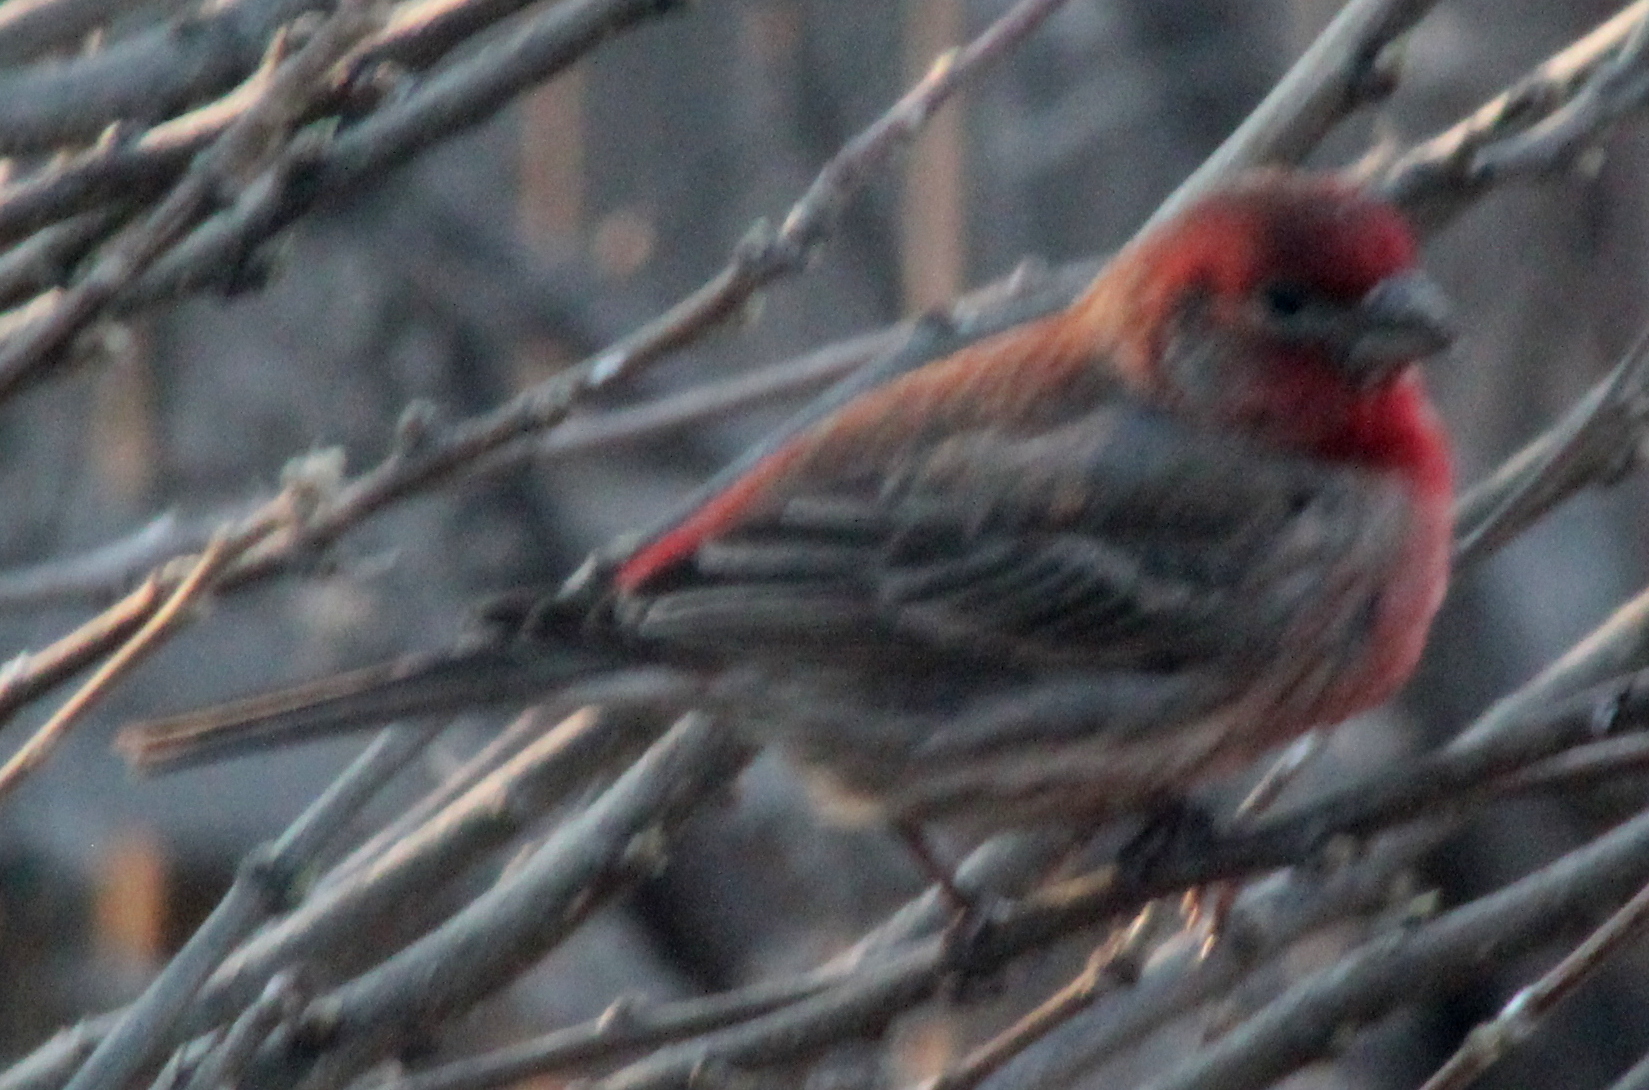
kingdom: Animalia
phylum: Chordata
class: Aves
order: Passeriformes
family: Fringillidae
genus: Haemorhous
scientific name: Haemorhous mexicanus
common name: House finch
